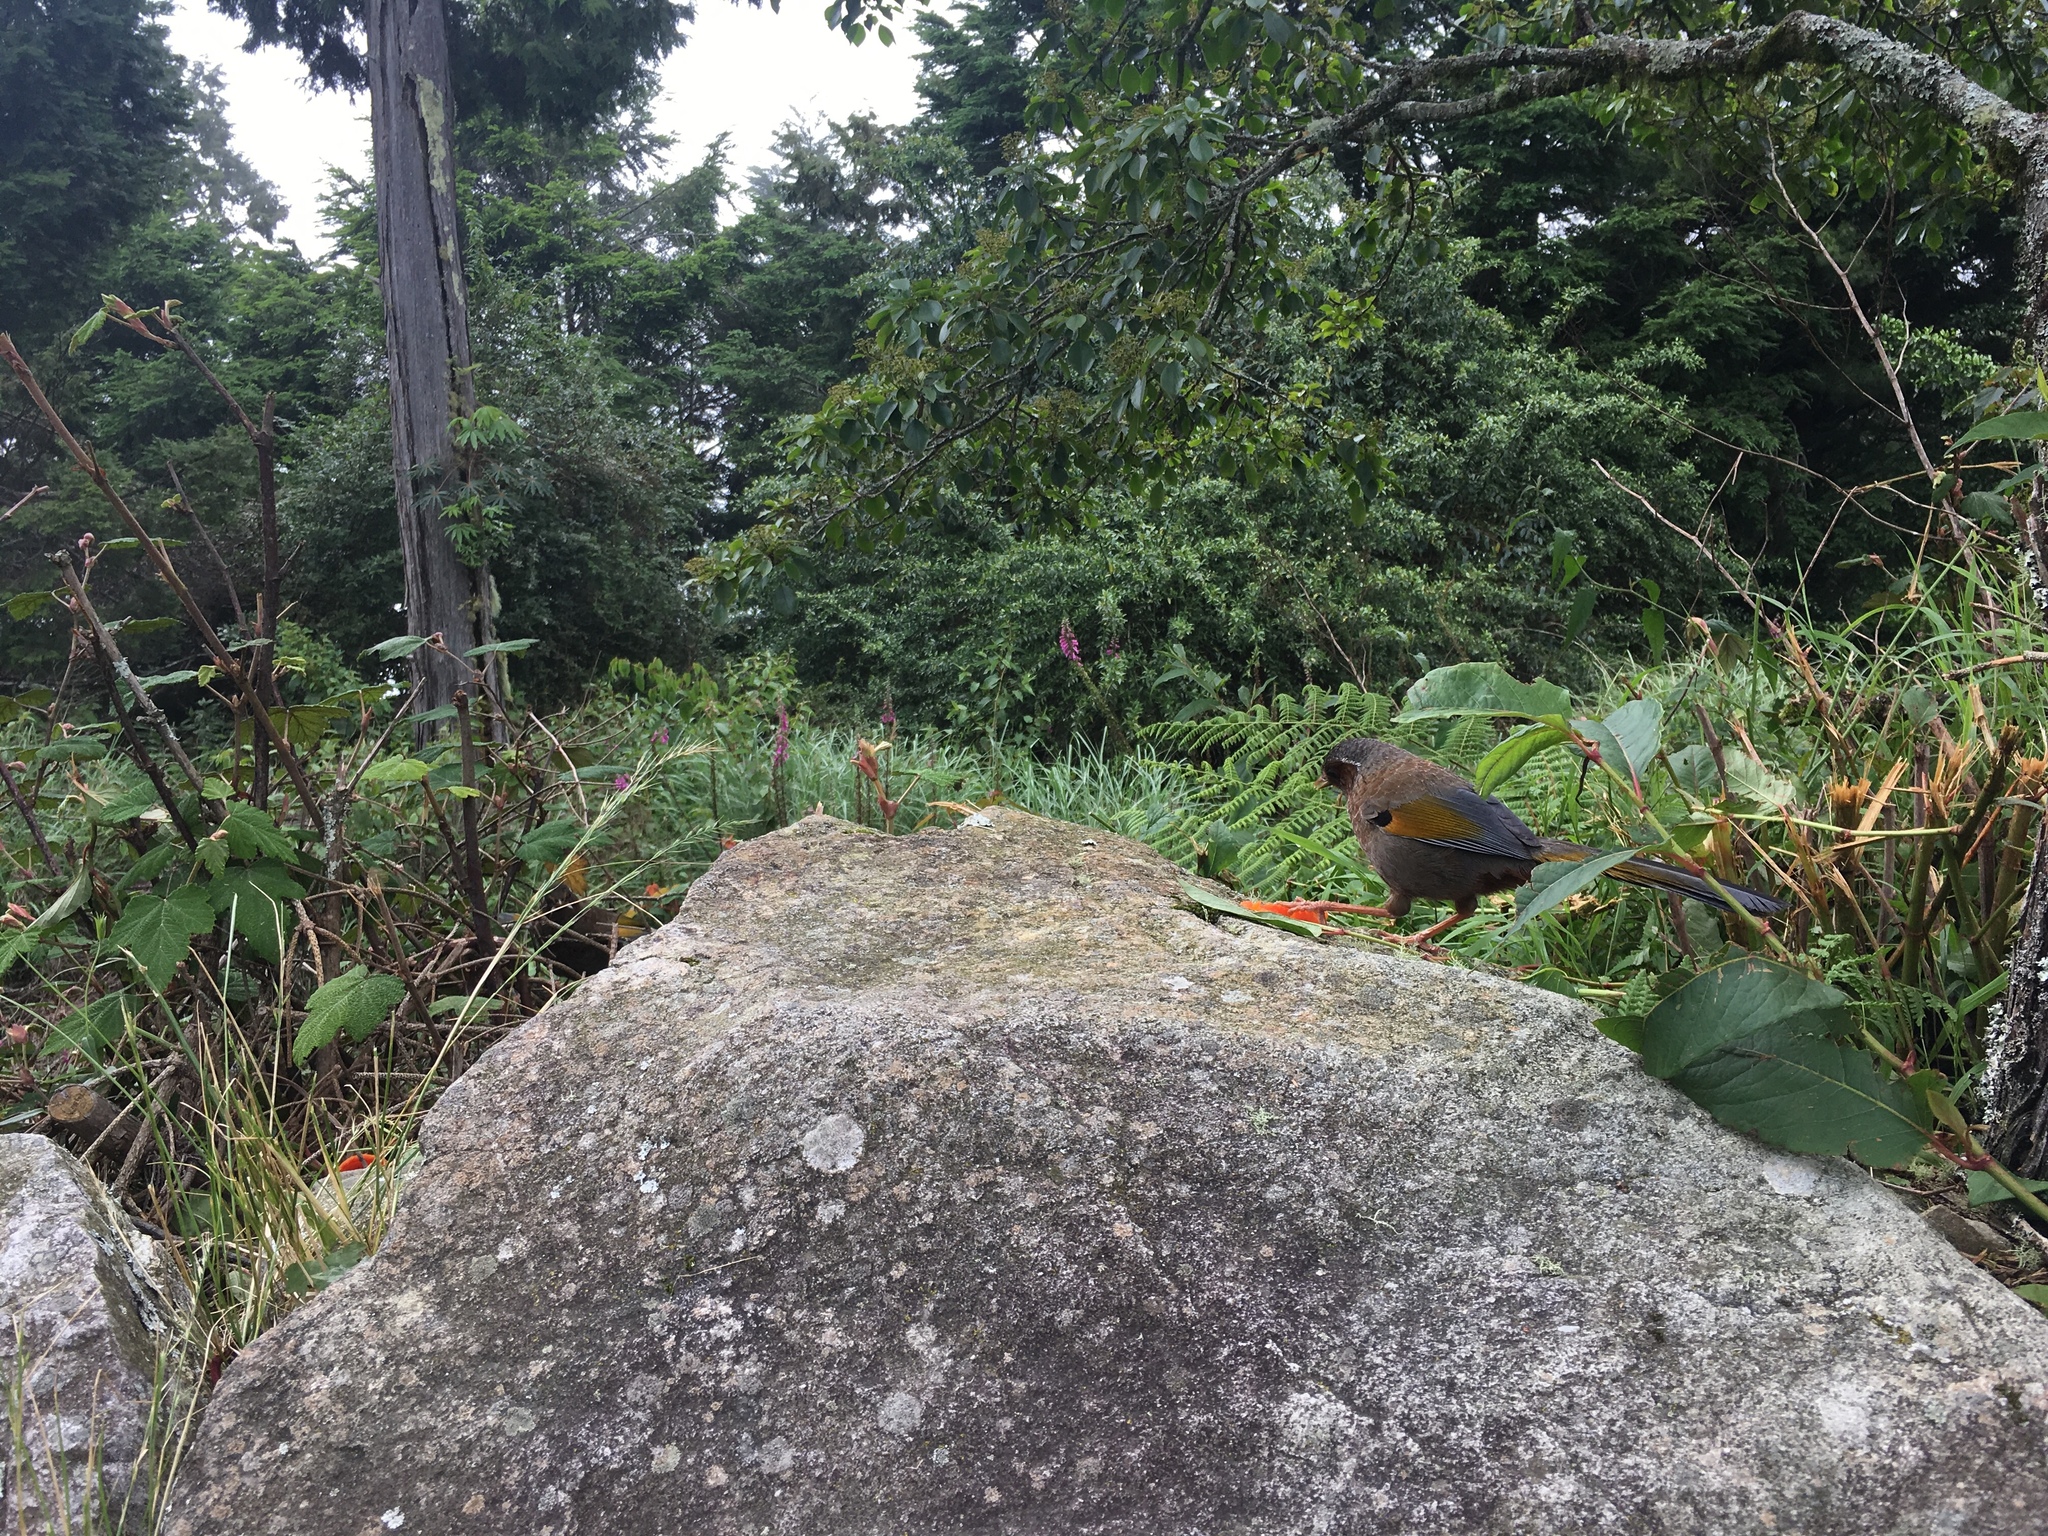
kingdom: Animalia
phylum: Chordata
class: Aves
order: Passeriformes
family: Leiothrichidae
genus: Trochalopteron
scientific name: Trochalopteron morrisonianum
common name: White-whiskered laughingthrush
